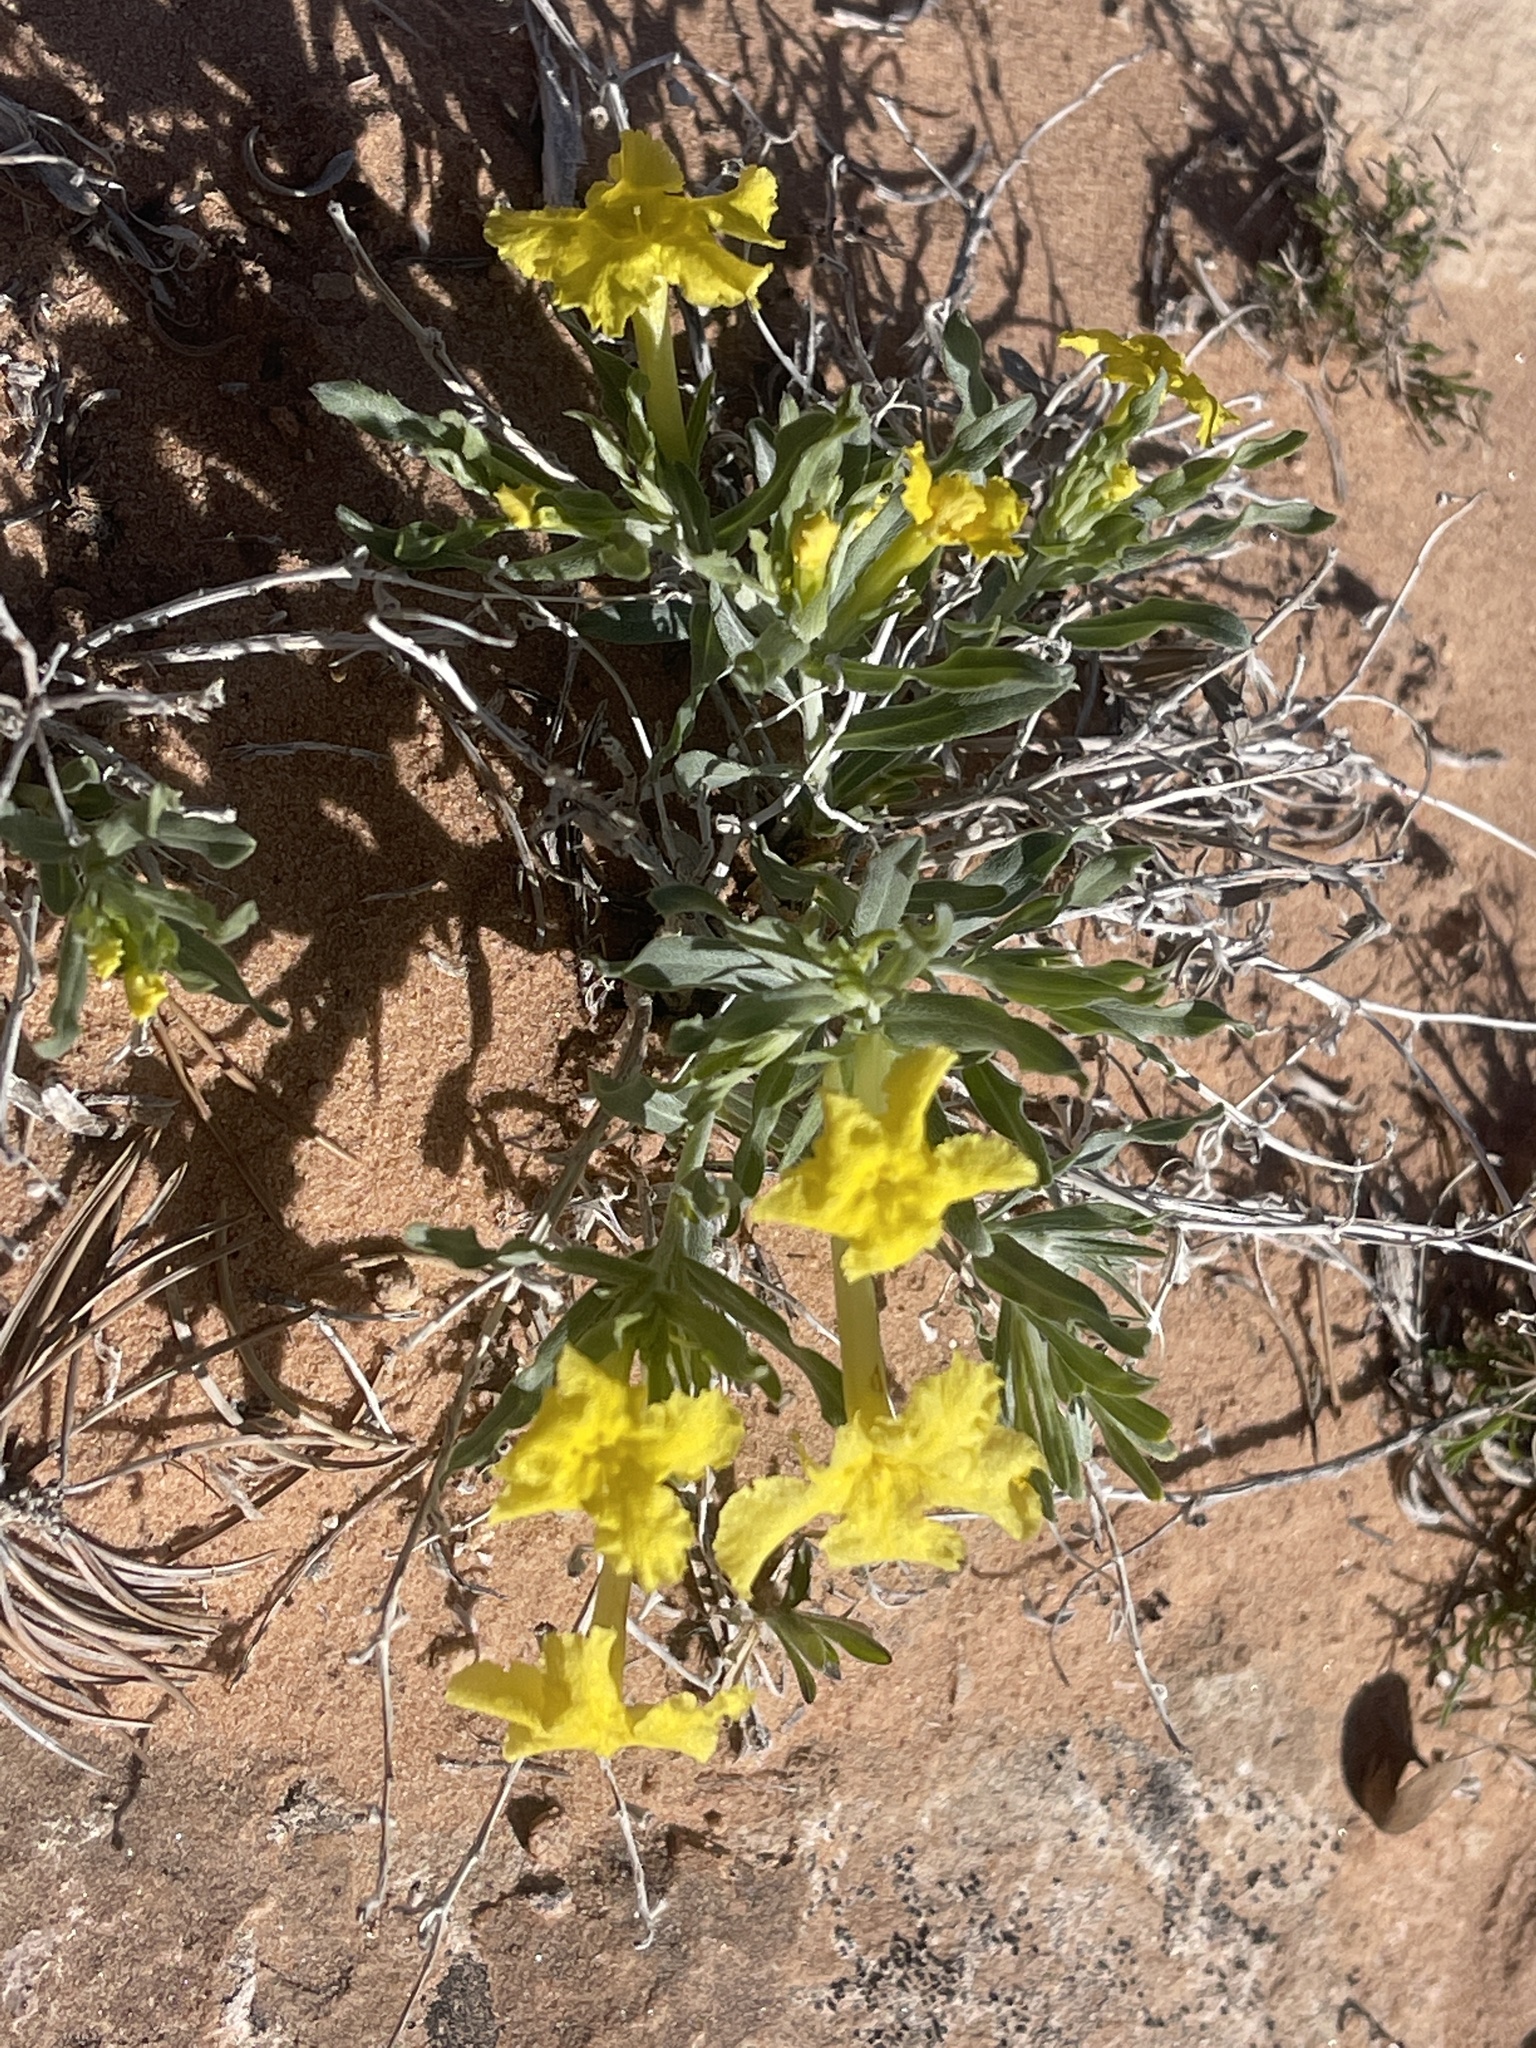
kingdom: Plantae
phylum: Tracheophyta
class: Magnoliopsida
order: Boraginales
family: Boraginaceae
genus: Lithospermum
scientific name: Lithospermum incisum
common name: Fringed gromwell
